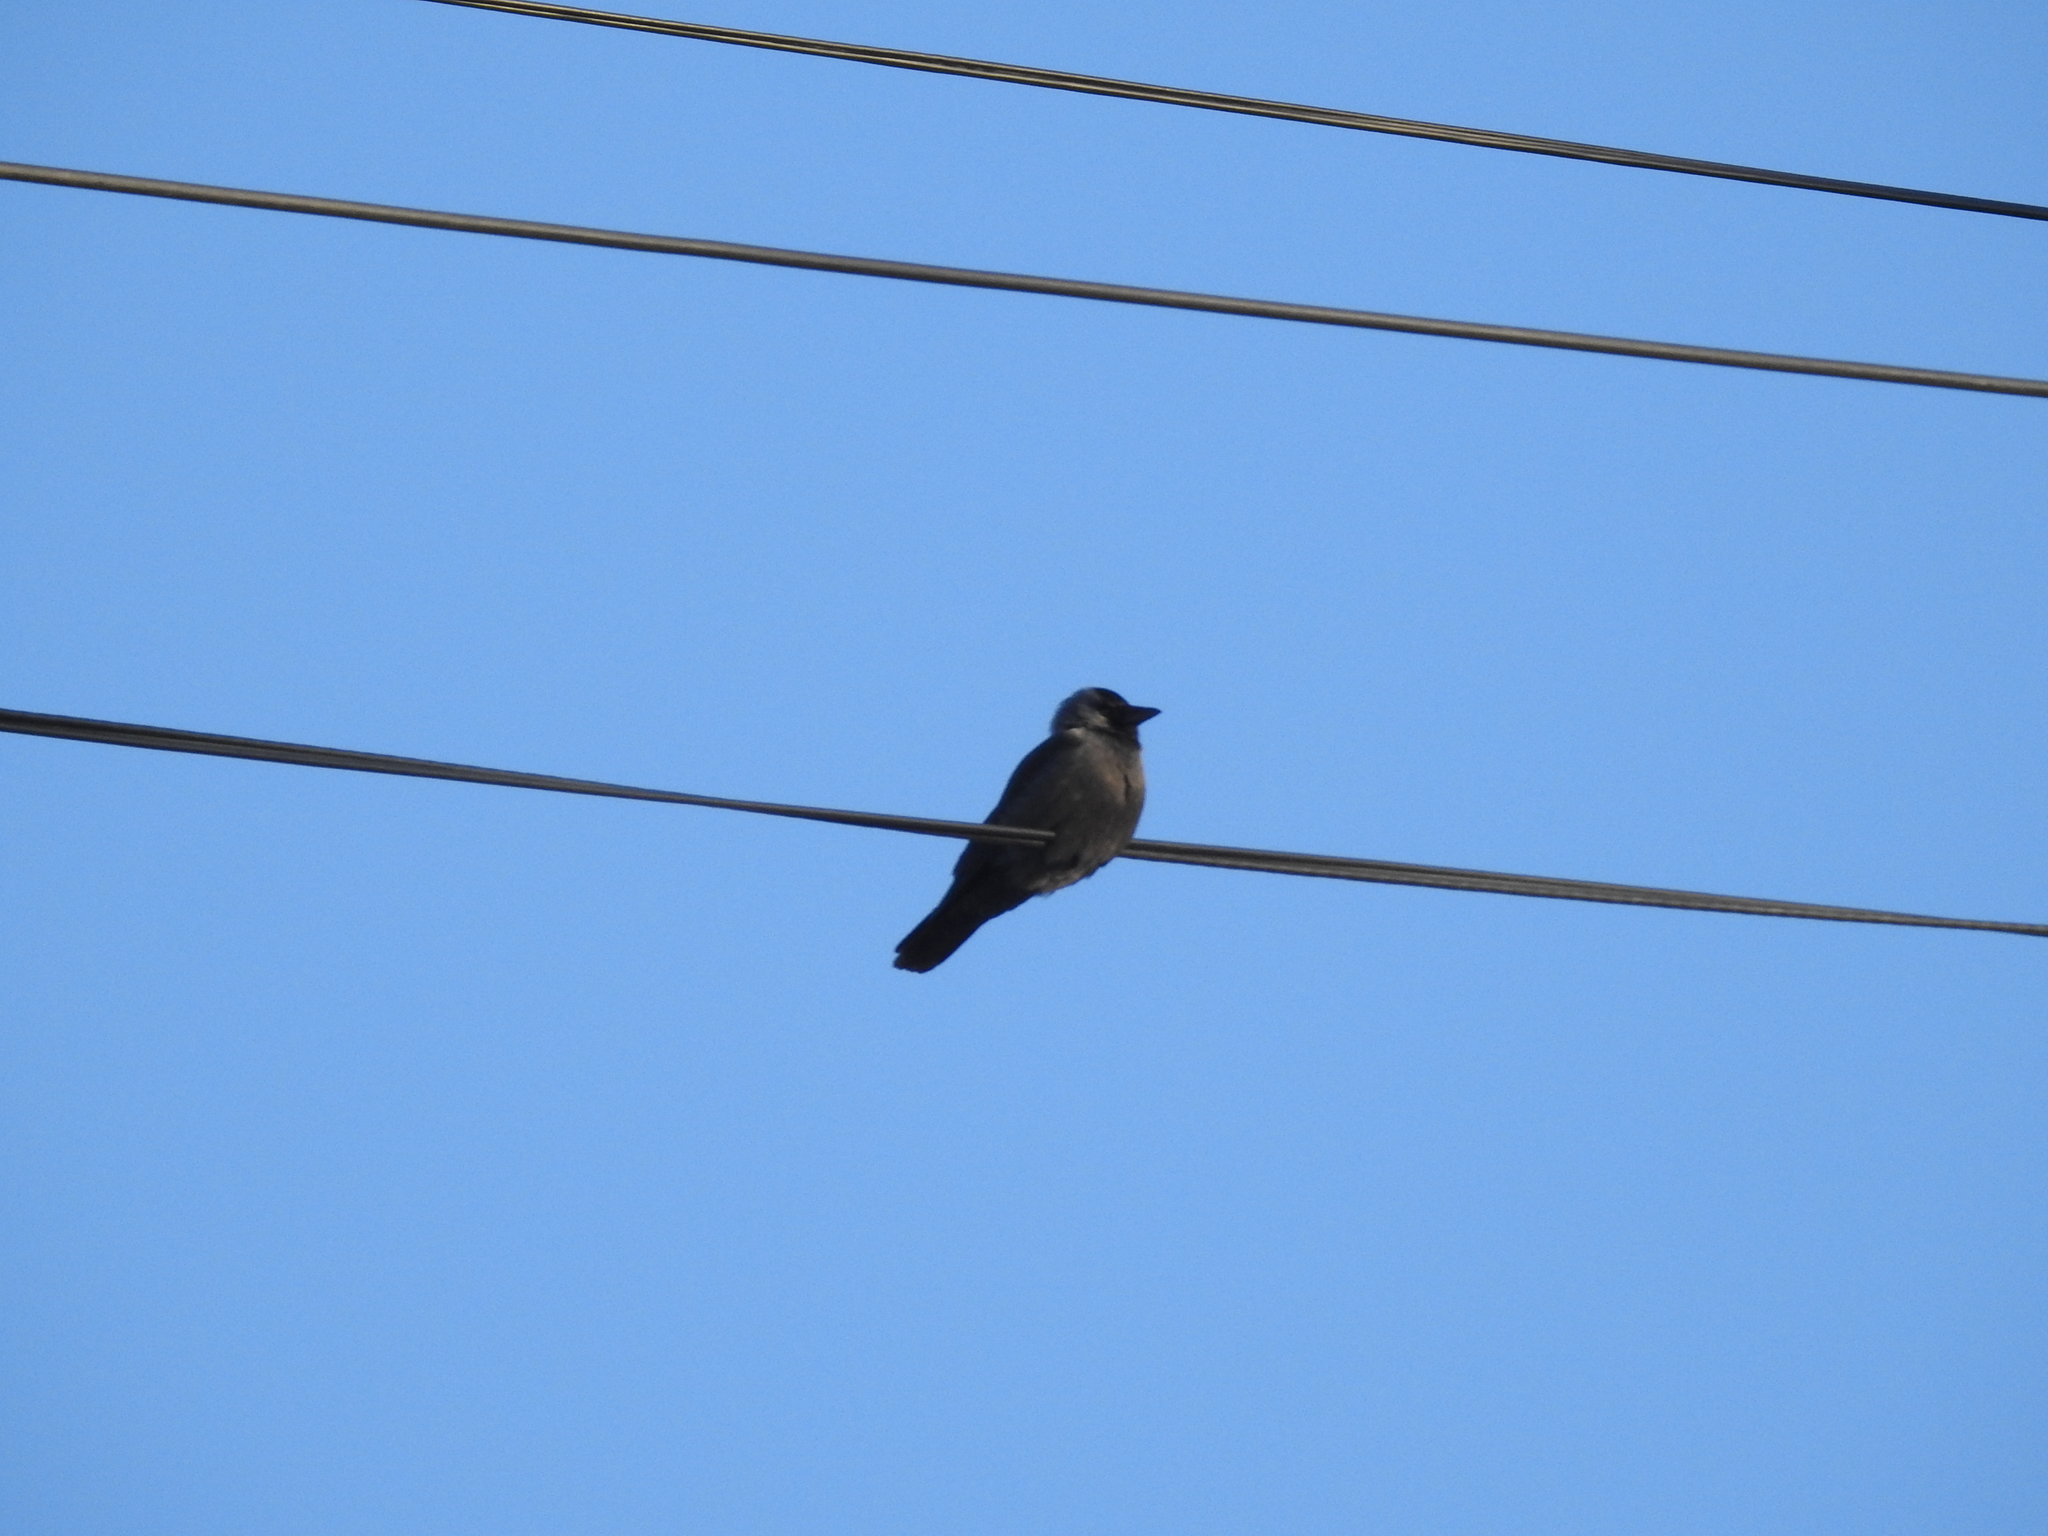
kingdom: Animalia
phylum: Chordata
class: Aves
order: Passeriformes
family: Corvidae
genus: Coloeus
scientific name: Coloeus monedula
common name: Western jackdaw
